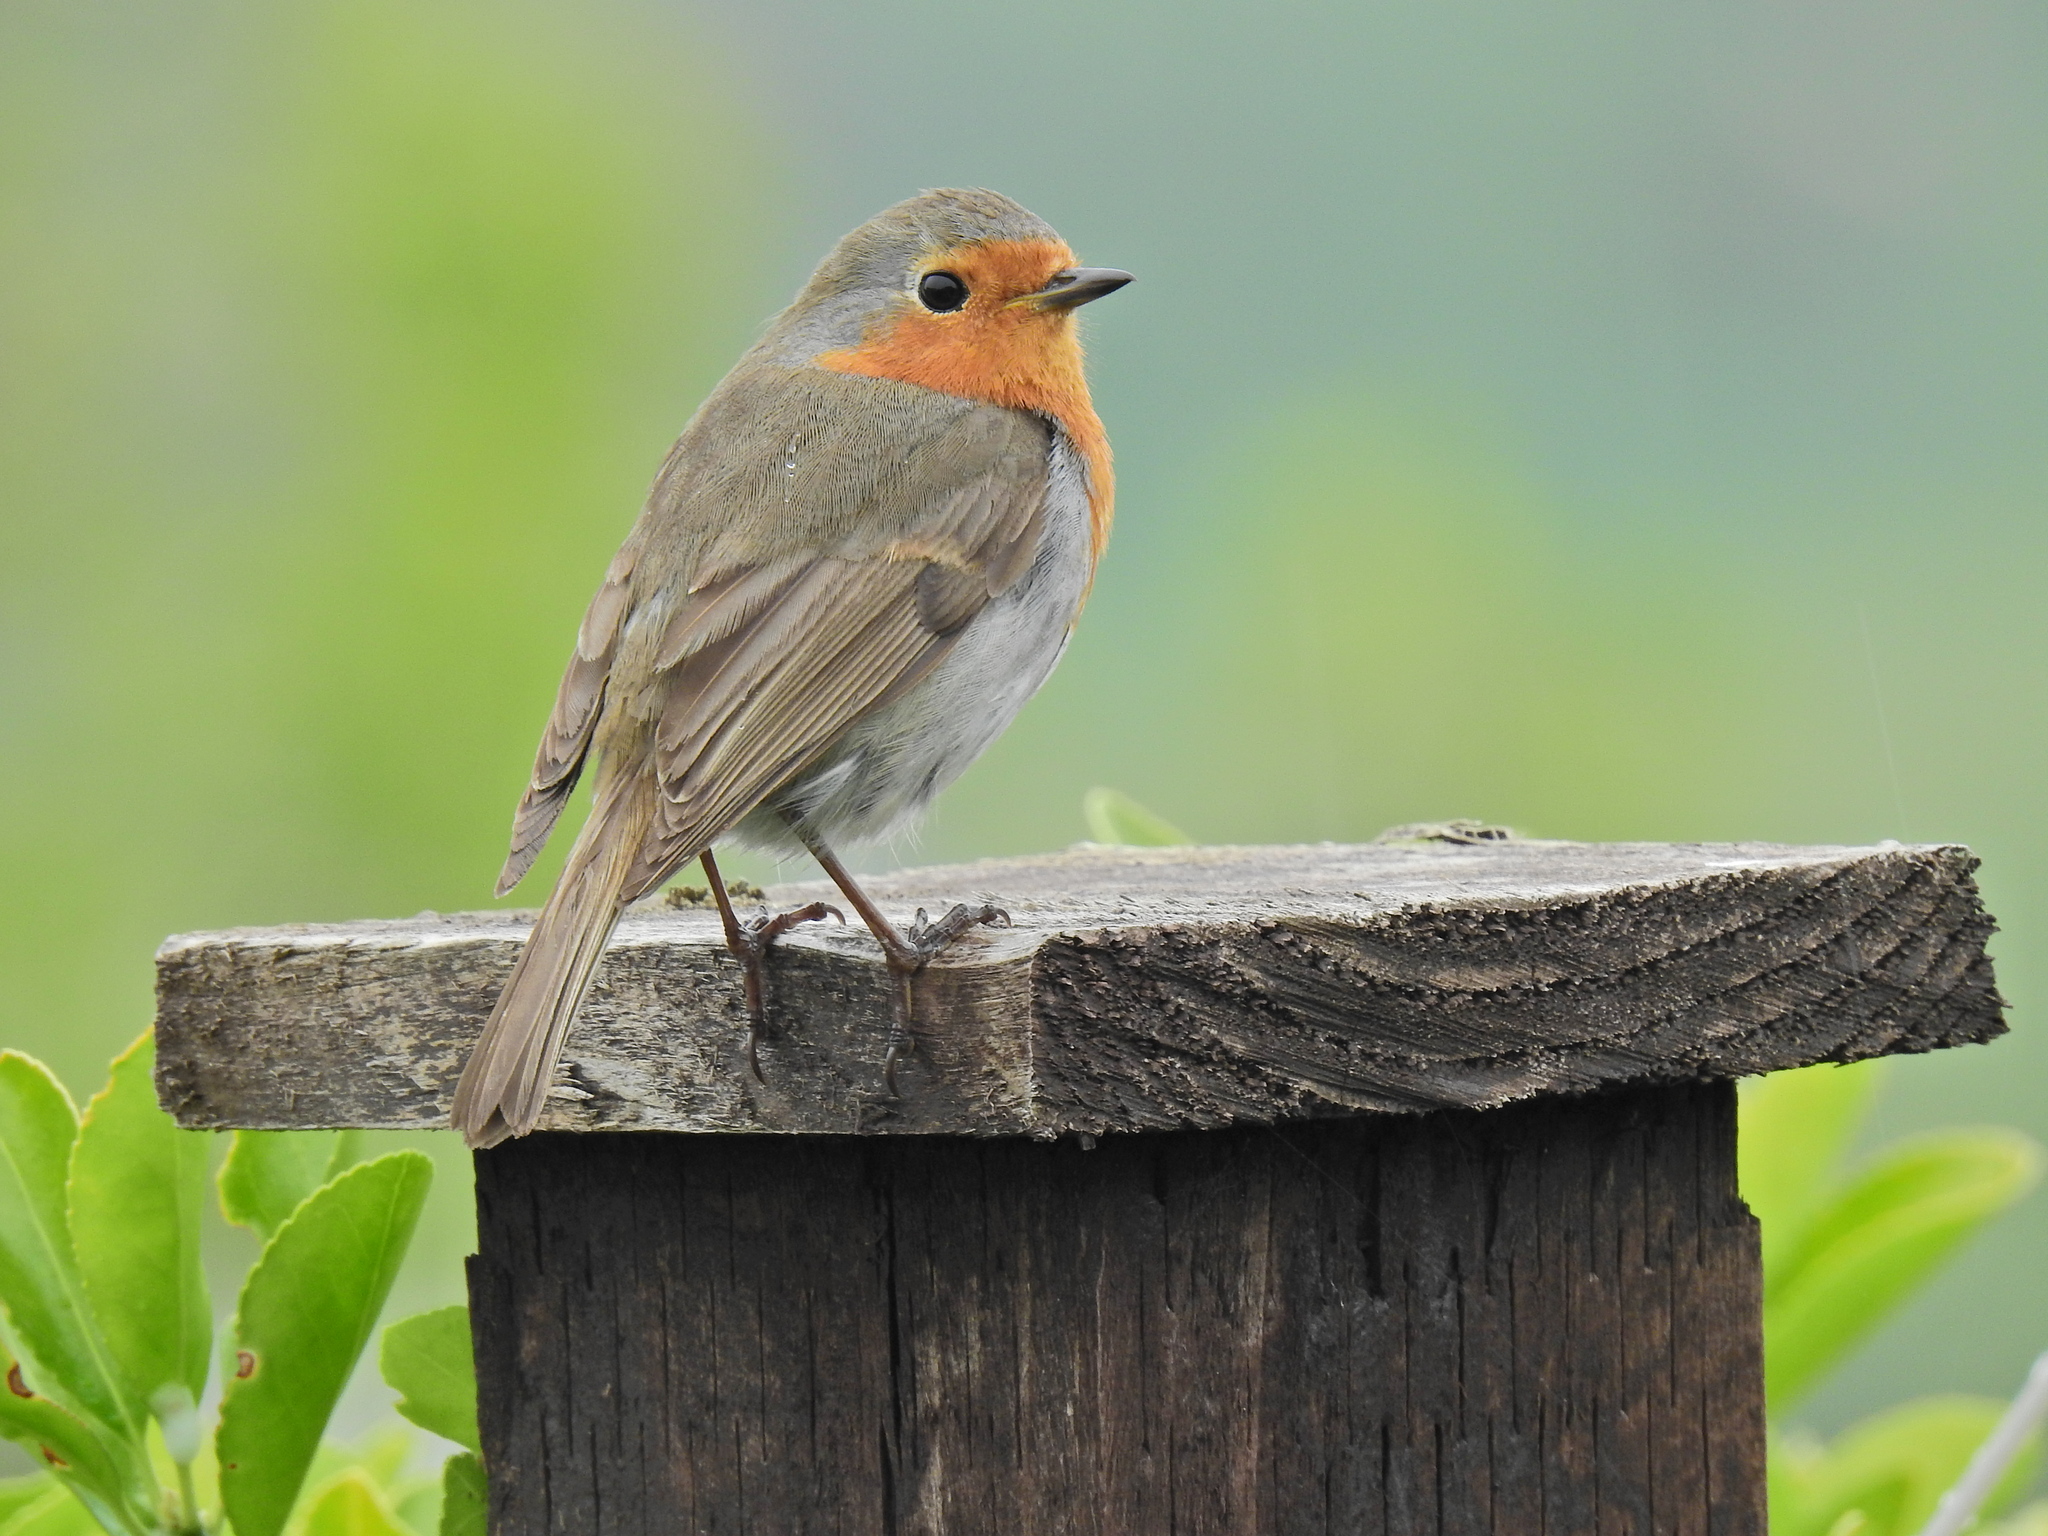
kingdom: Animalia
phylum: Chordata
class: Aves
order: Passeriformes
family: Muscicapidae
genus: Erithacus
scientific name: Erithacus rubecula
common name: European robin
